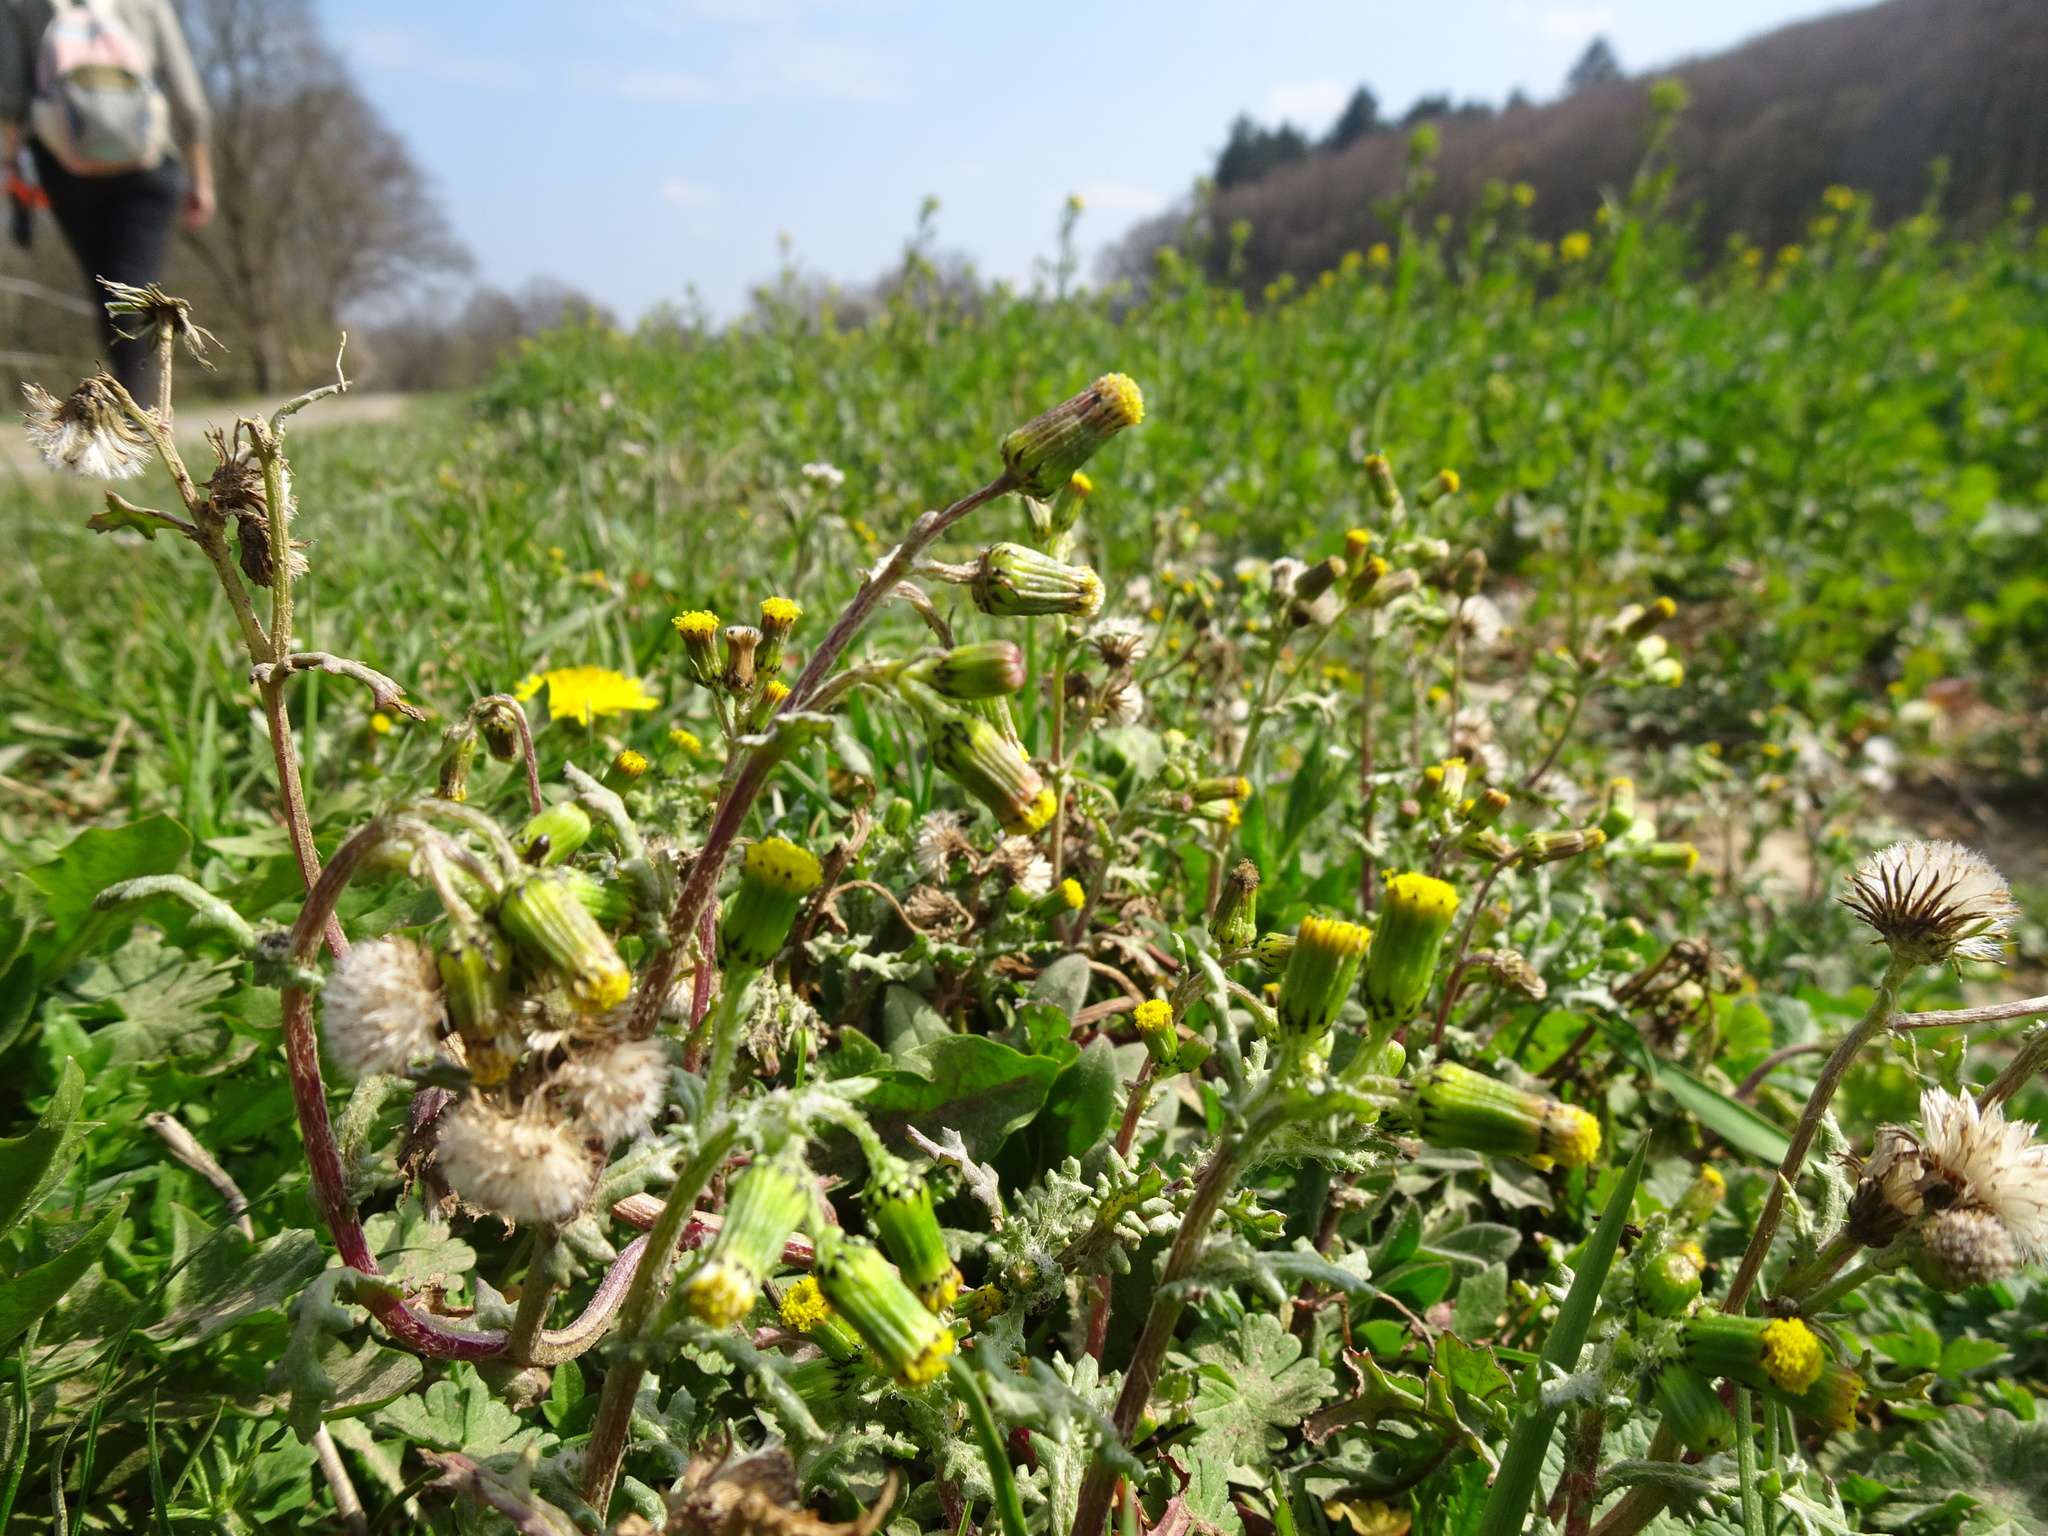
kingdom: Plantae
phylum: Tracheophyta
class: Magnoliopsida
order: Asterales
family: Asteraceae
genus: Senecio
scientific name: Senecio vulgaris
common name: Old-man-in-the-spring
